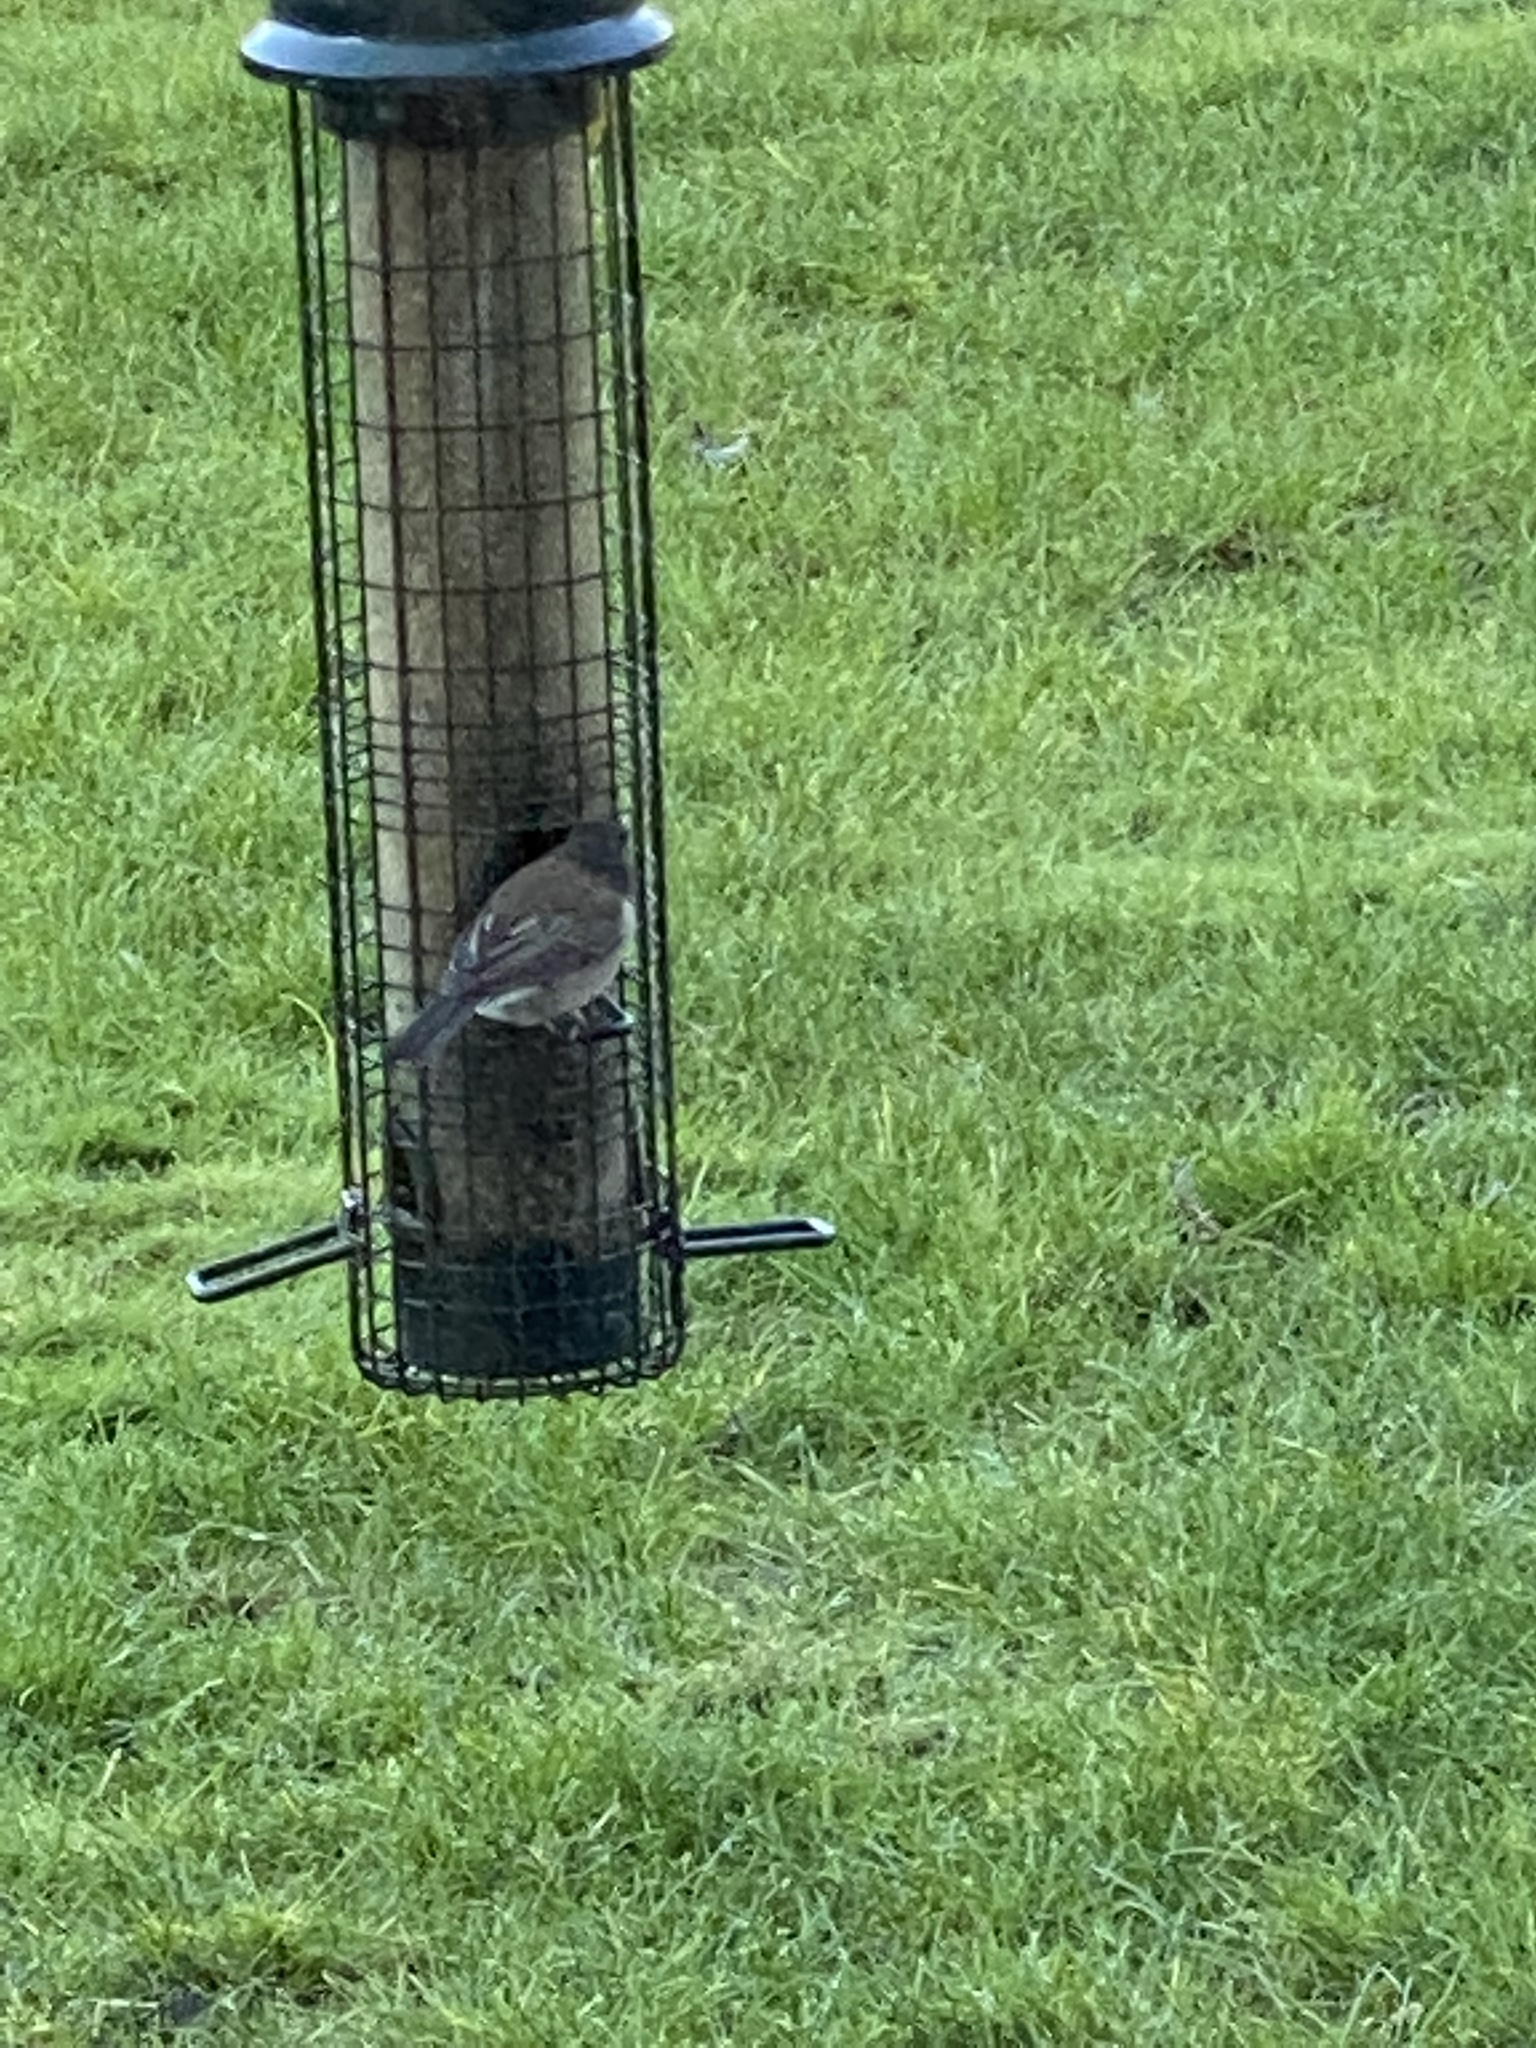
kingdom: Animalia
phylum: Chordata
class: Aves
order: Passeriformes
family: Passerellidae
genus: Junco
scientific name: Junco hyemalis
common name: Dark-eyed junco
